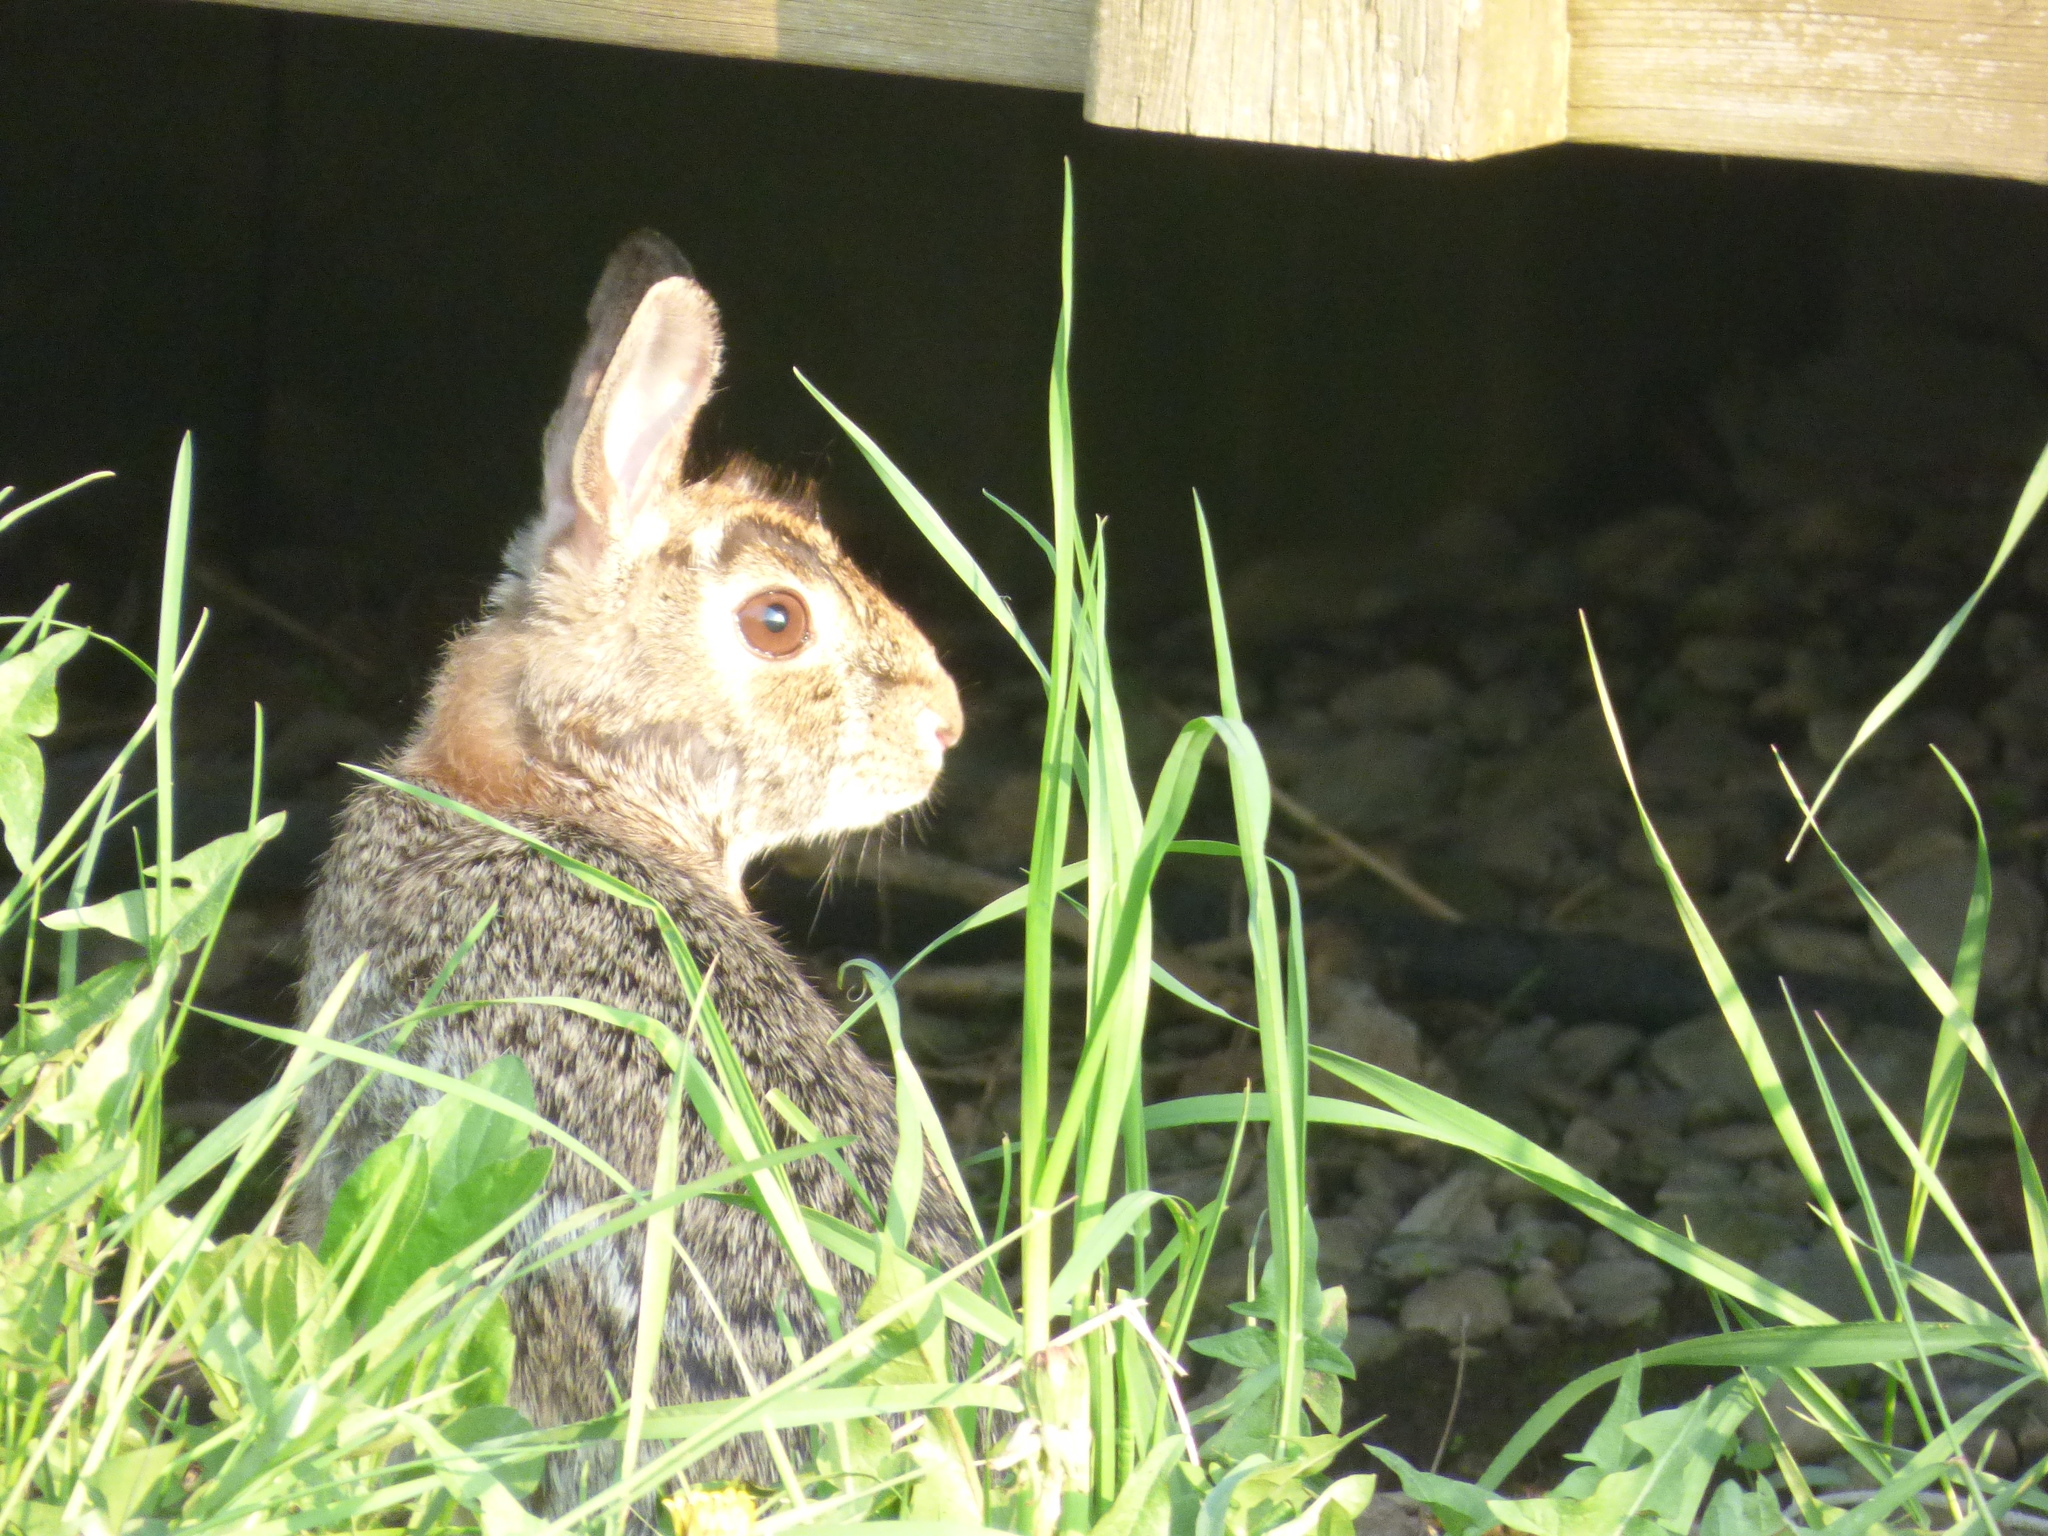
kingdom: Animalia
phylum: Chordata
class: Mammalia
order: Lagomorpha
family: Leporidae
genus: Sylvilagus
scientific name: Sylvilagus floridanus
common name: Eastern cottontail
